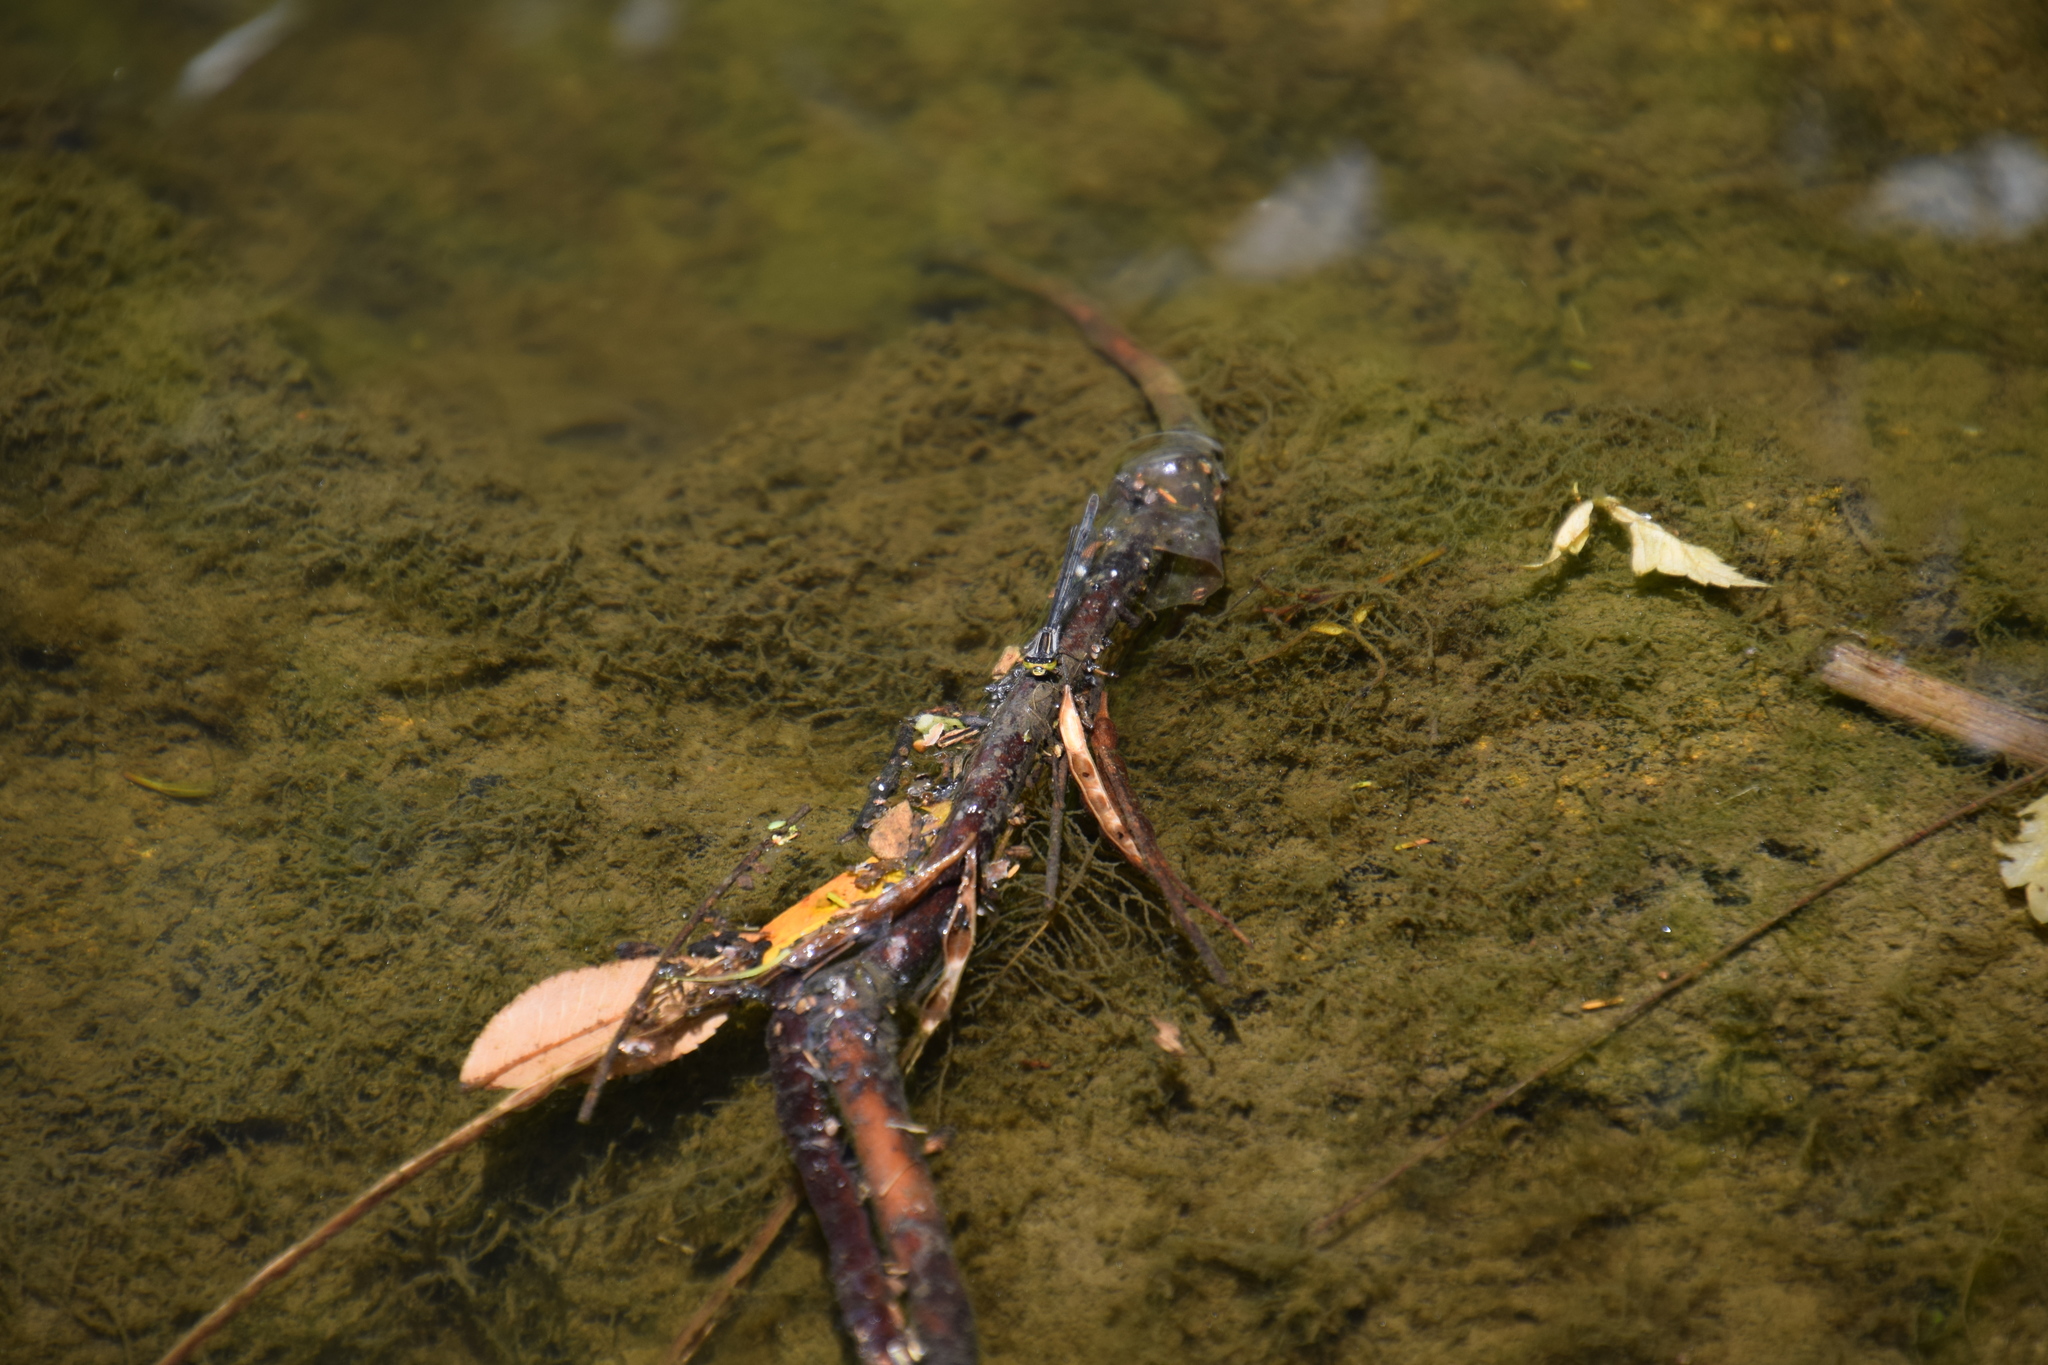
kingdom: Animalia
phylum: Arthropoda
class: Insecta
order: Odonata
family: Coenagrionidae
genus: Ischnura
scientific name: Ischnura heterosticta
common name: Common bluetail
